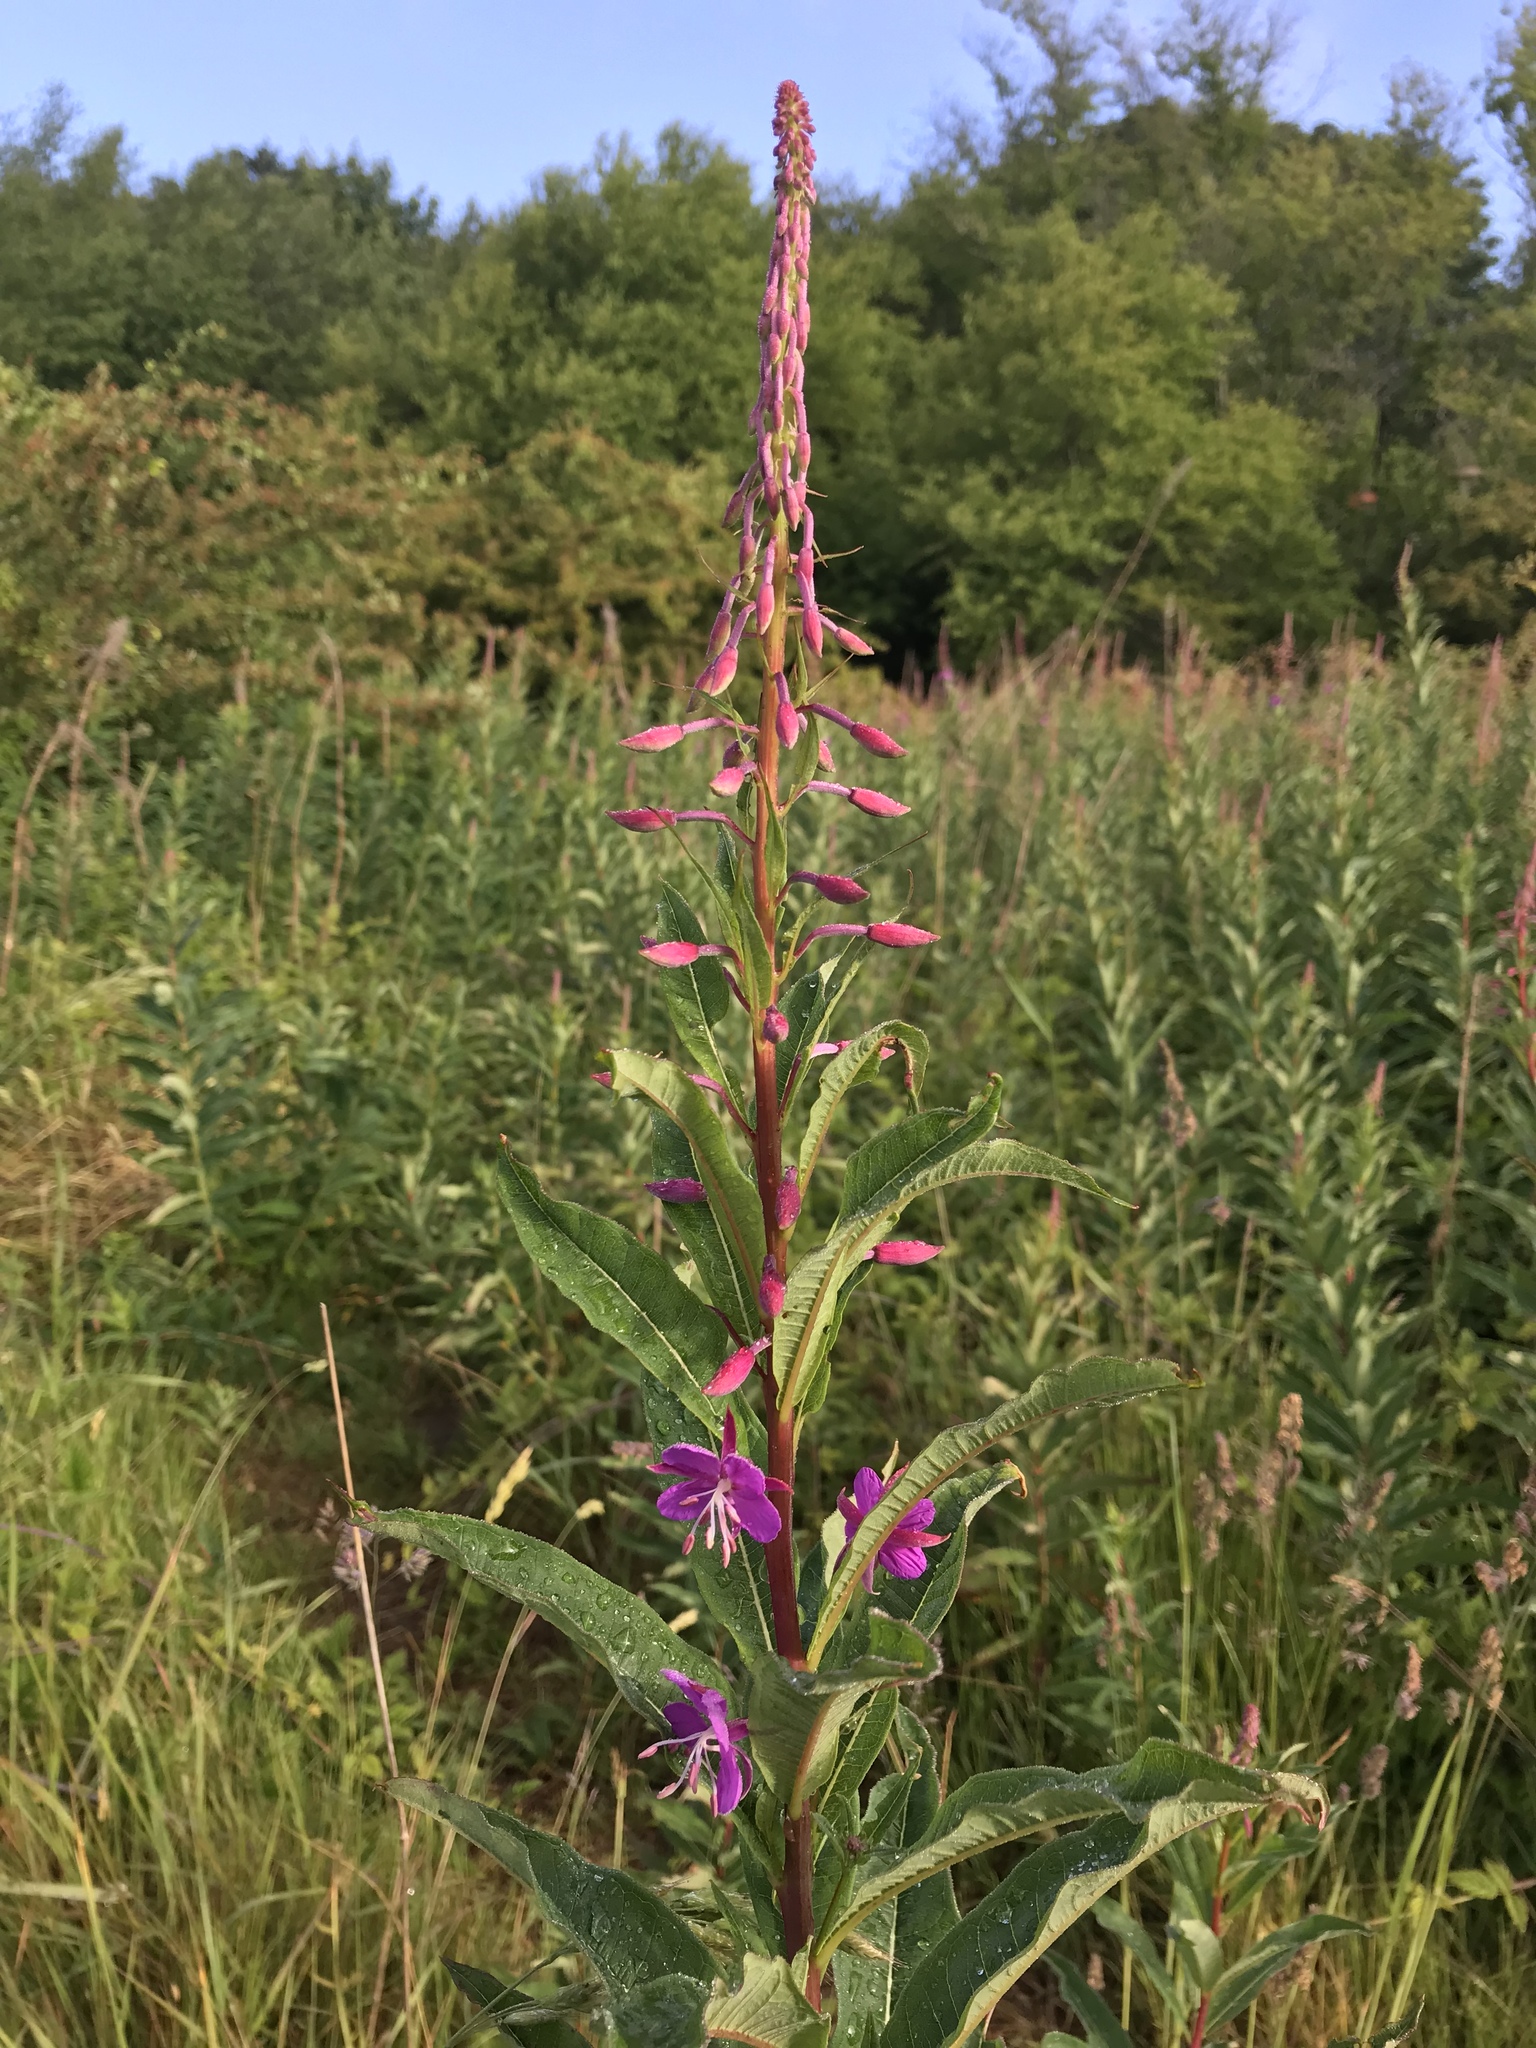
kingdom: Plantae
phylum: Tracheophyta
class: Magnoliopsida
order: Myrtales
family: Onagraceae
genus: Chamaenerion
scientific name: Chamaenerion angustifolium
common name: Fireweed
